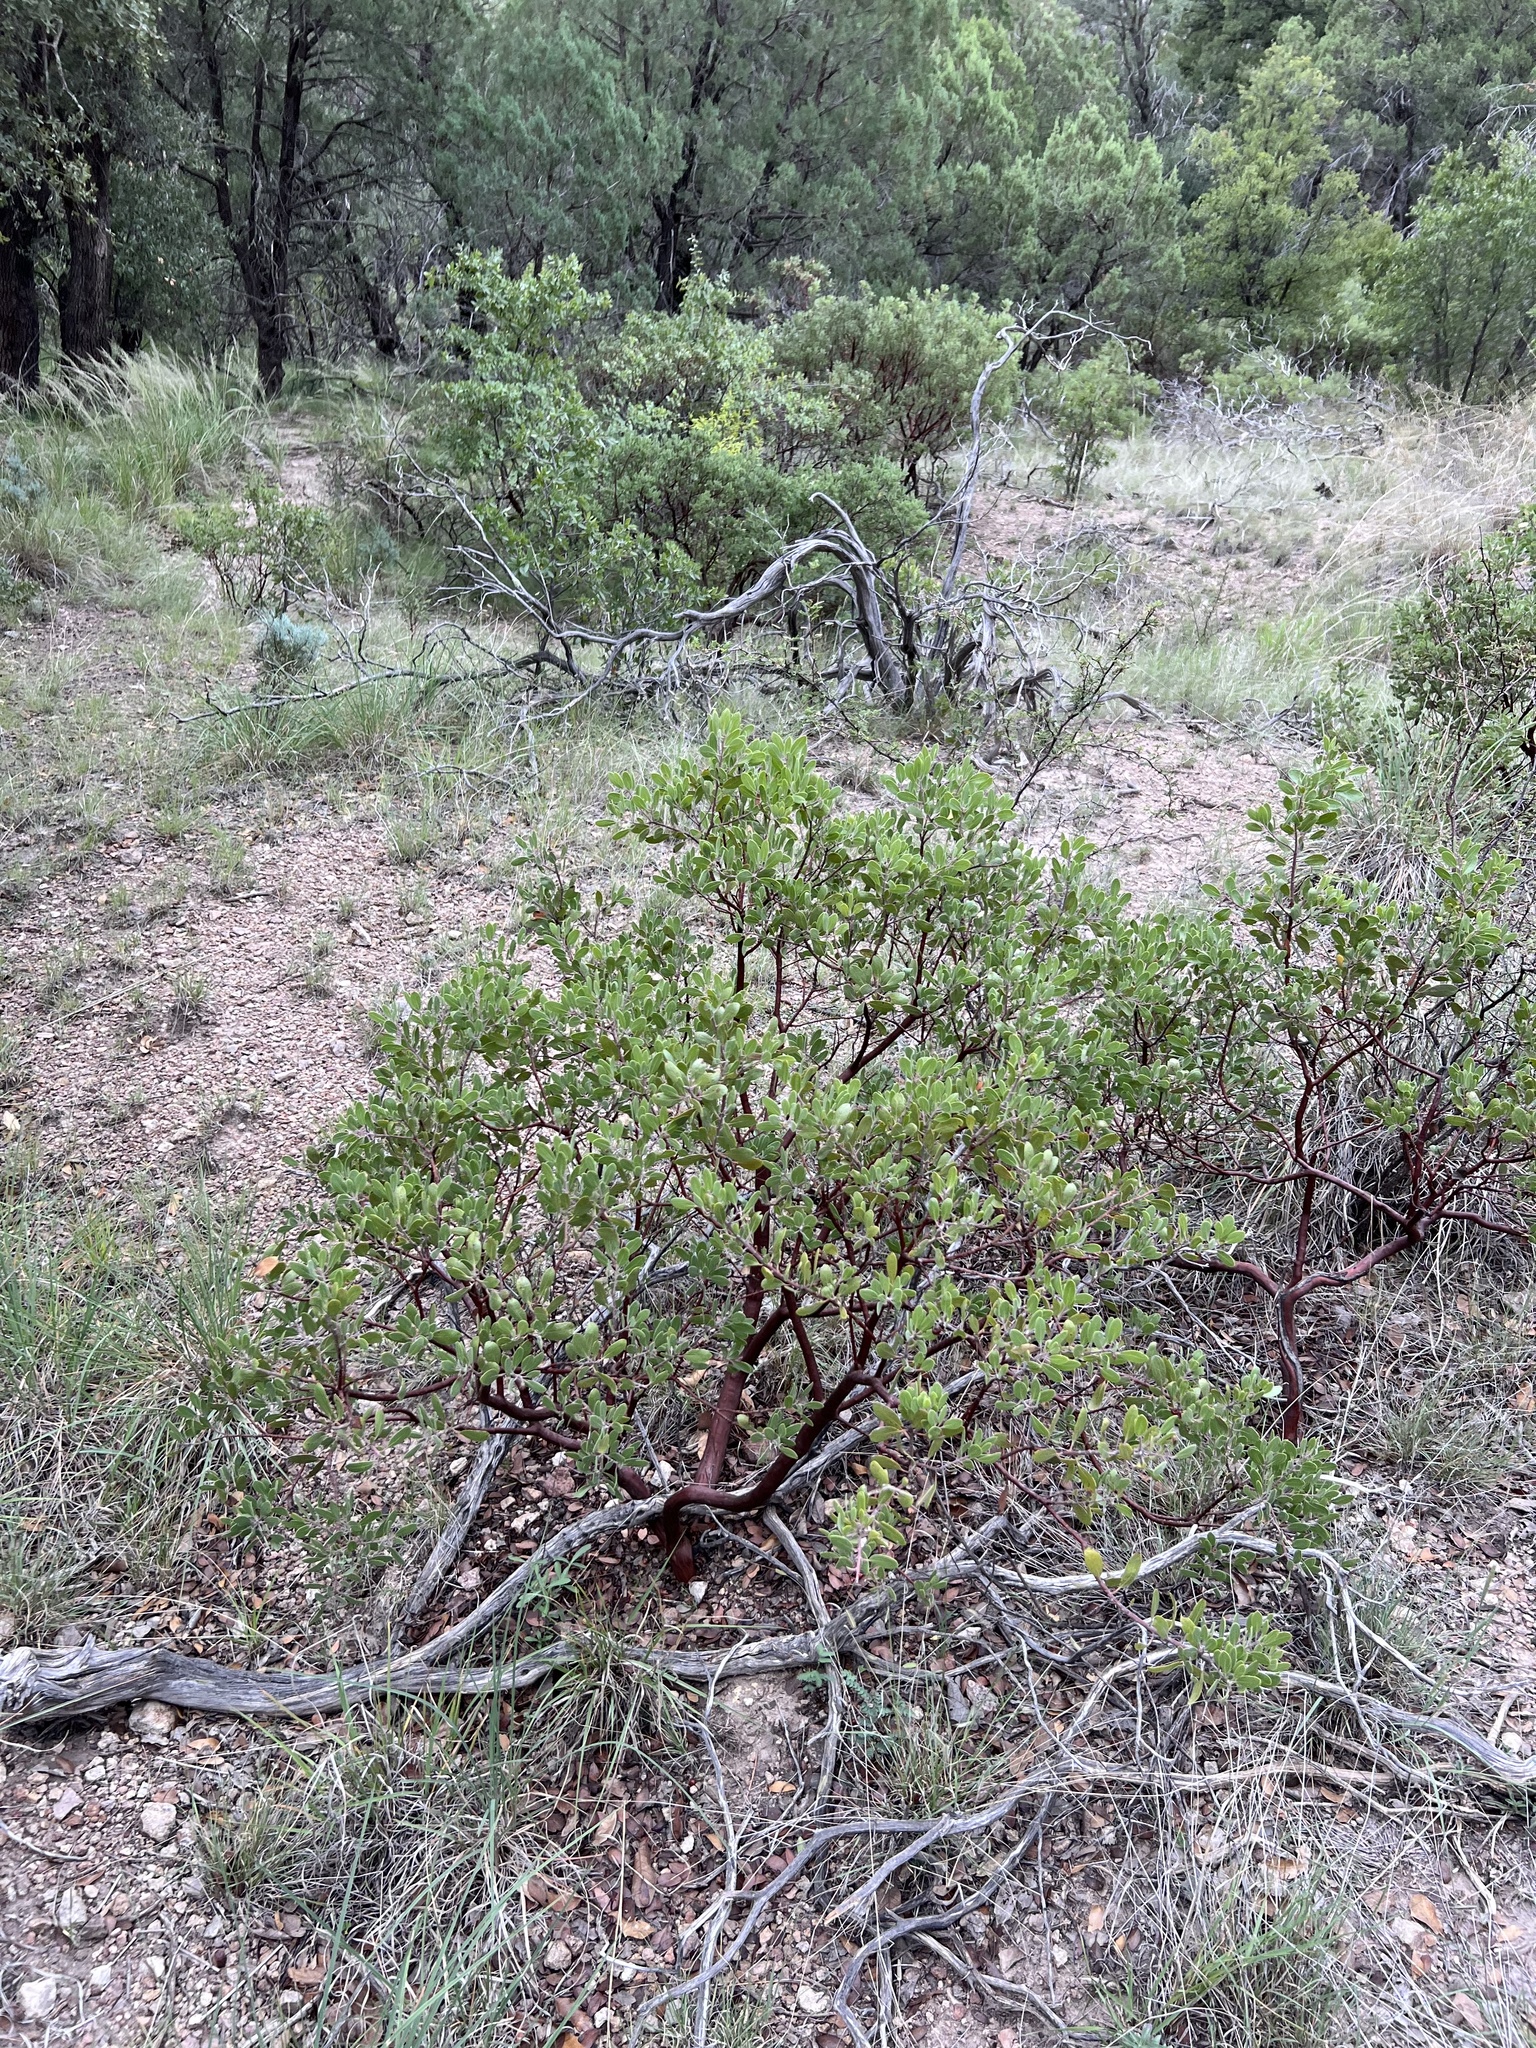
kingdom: Plantae
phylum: Tracheophyta
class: Magnoliopsida
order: Ericales
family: Ericaceae
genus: Arctostaphylos
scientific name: Arctostaphylos pungens
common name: Mexican manzanita
